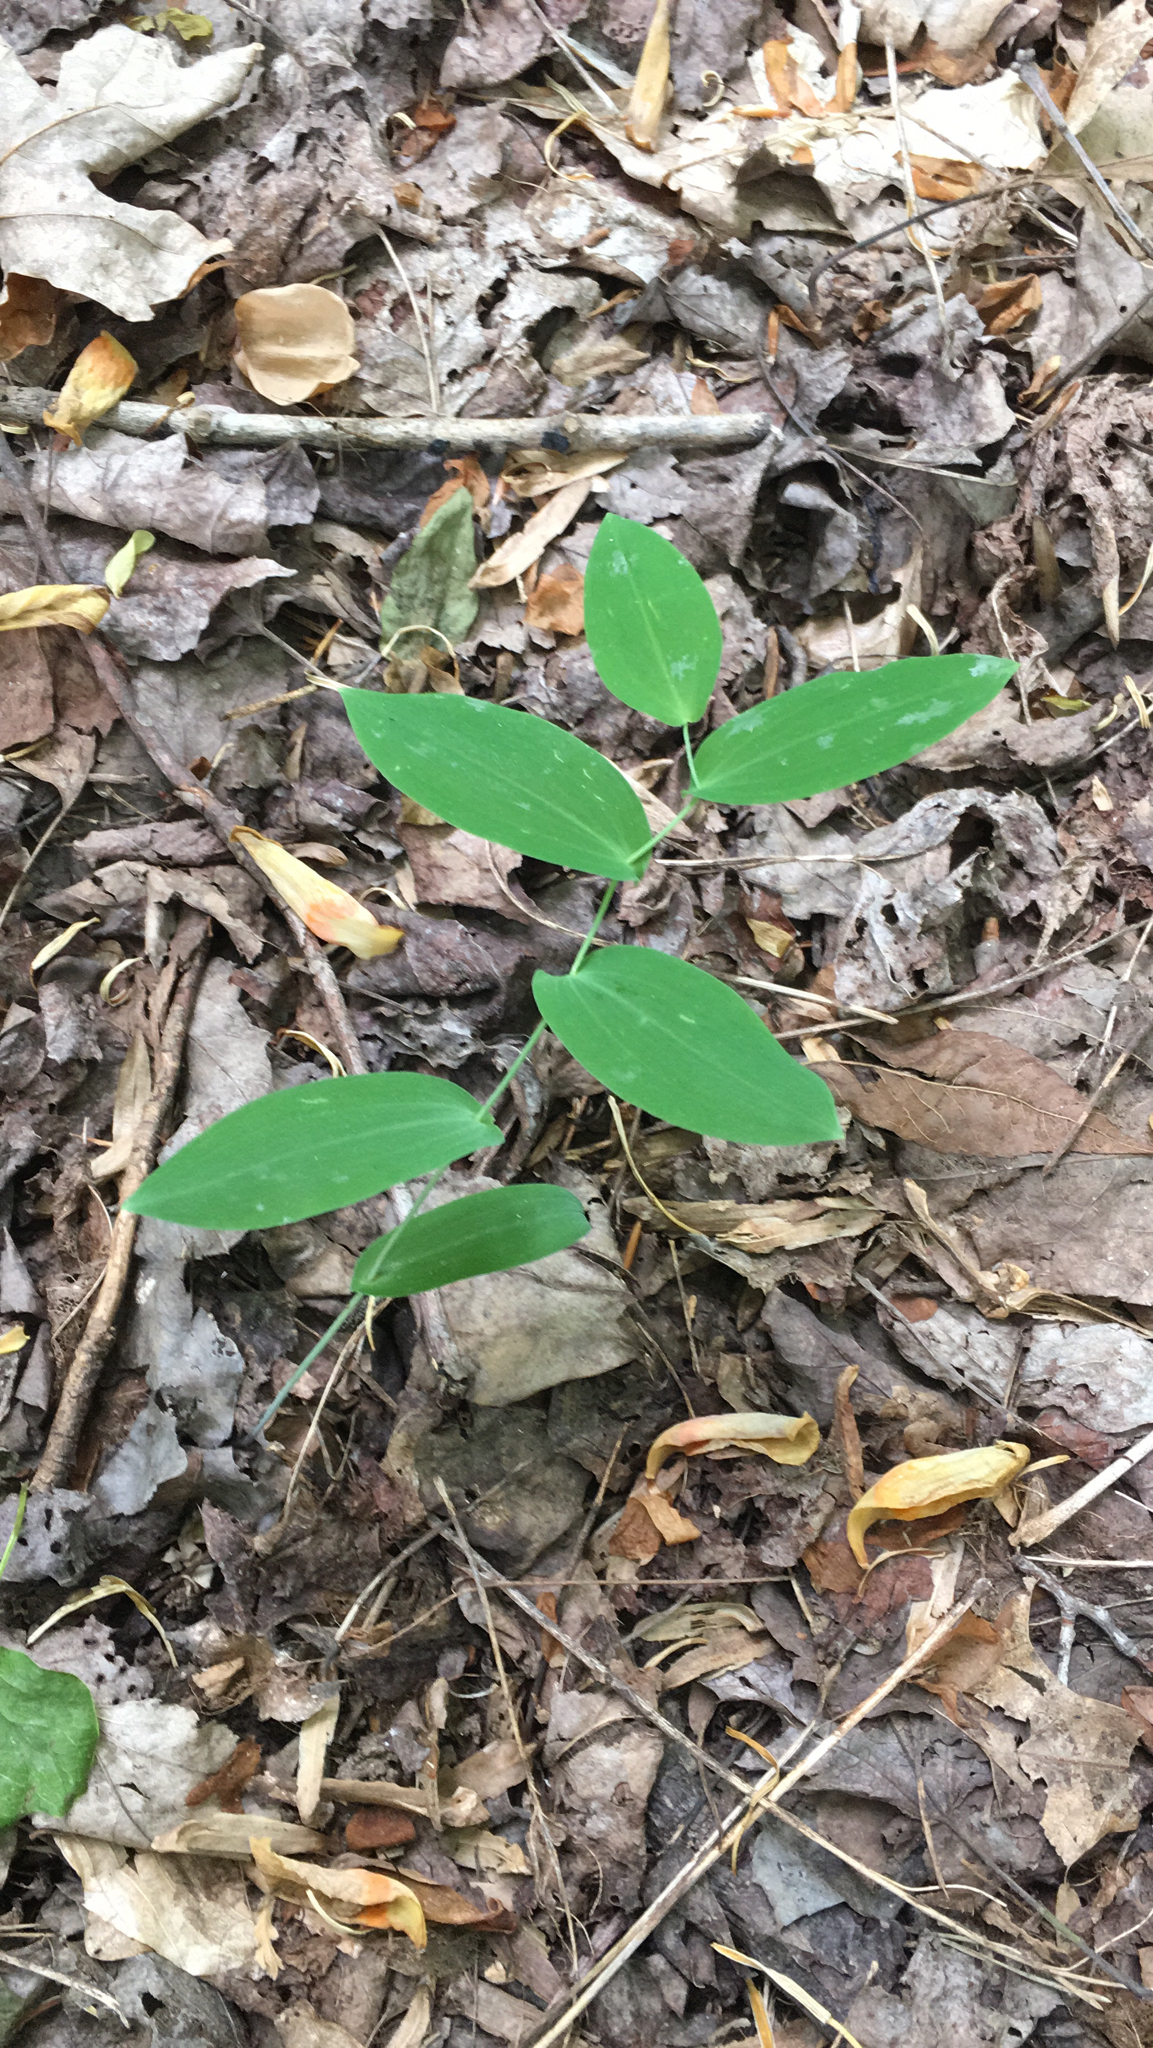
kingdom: Plantae
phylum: Tracheophyta
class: Liliopsida
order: Liliales
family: Colchicaceae
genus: Uvularia
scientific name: Uvularia perfoliata
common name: Perfoliate bellwort
